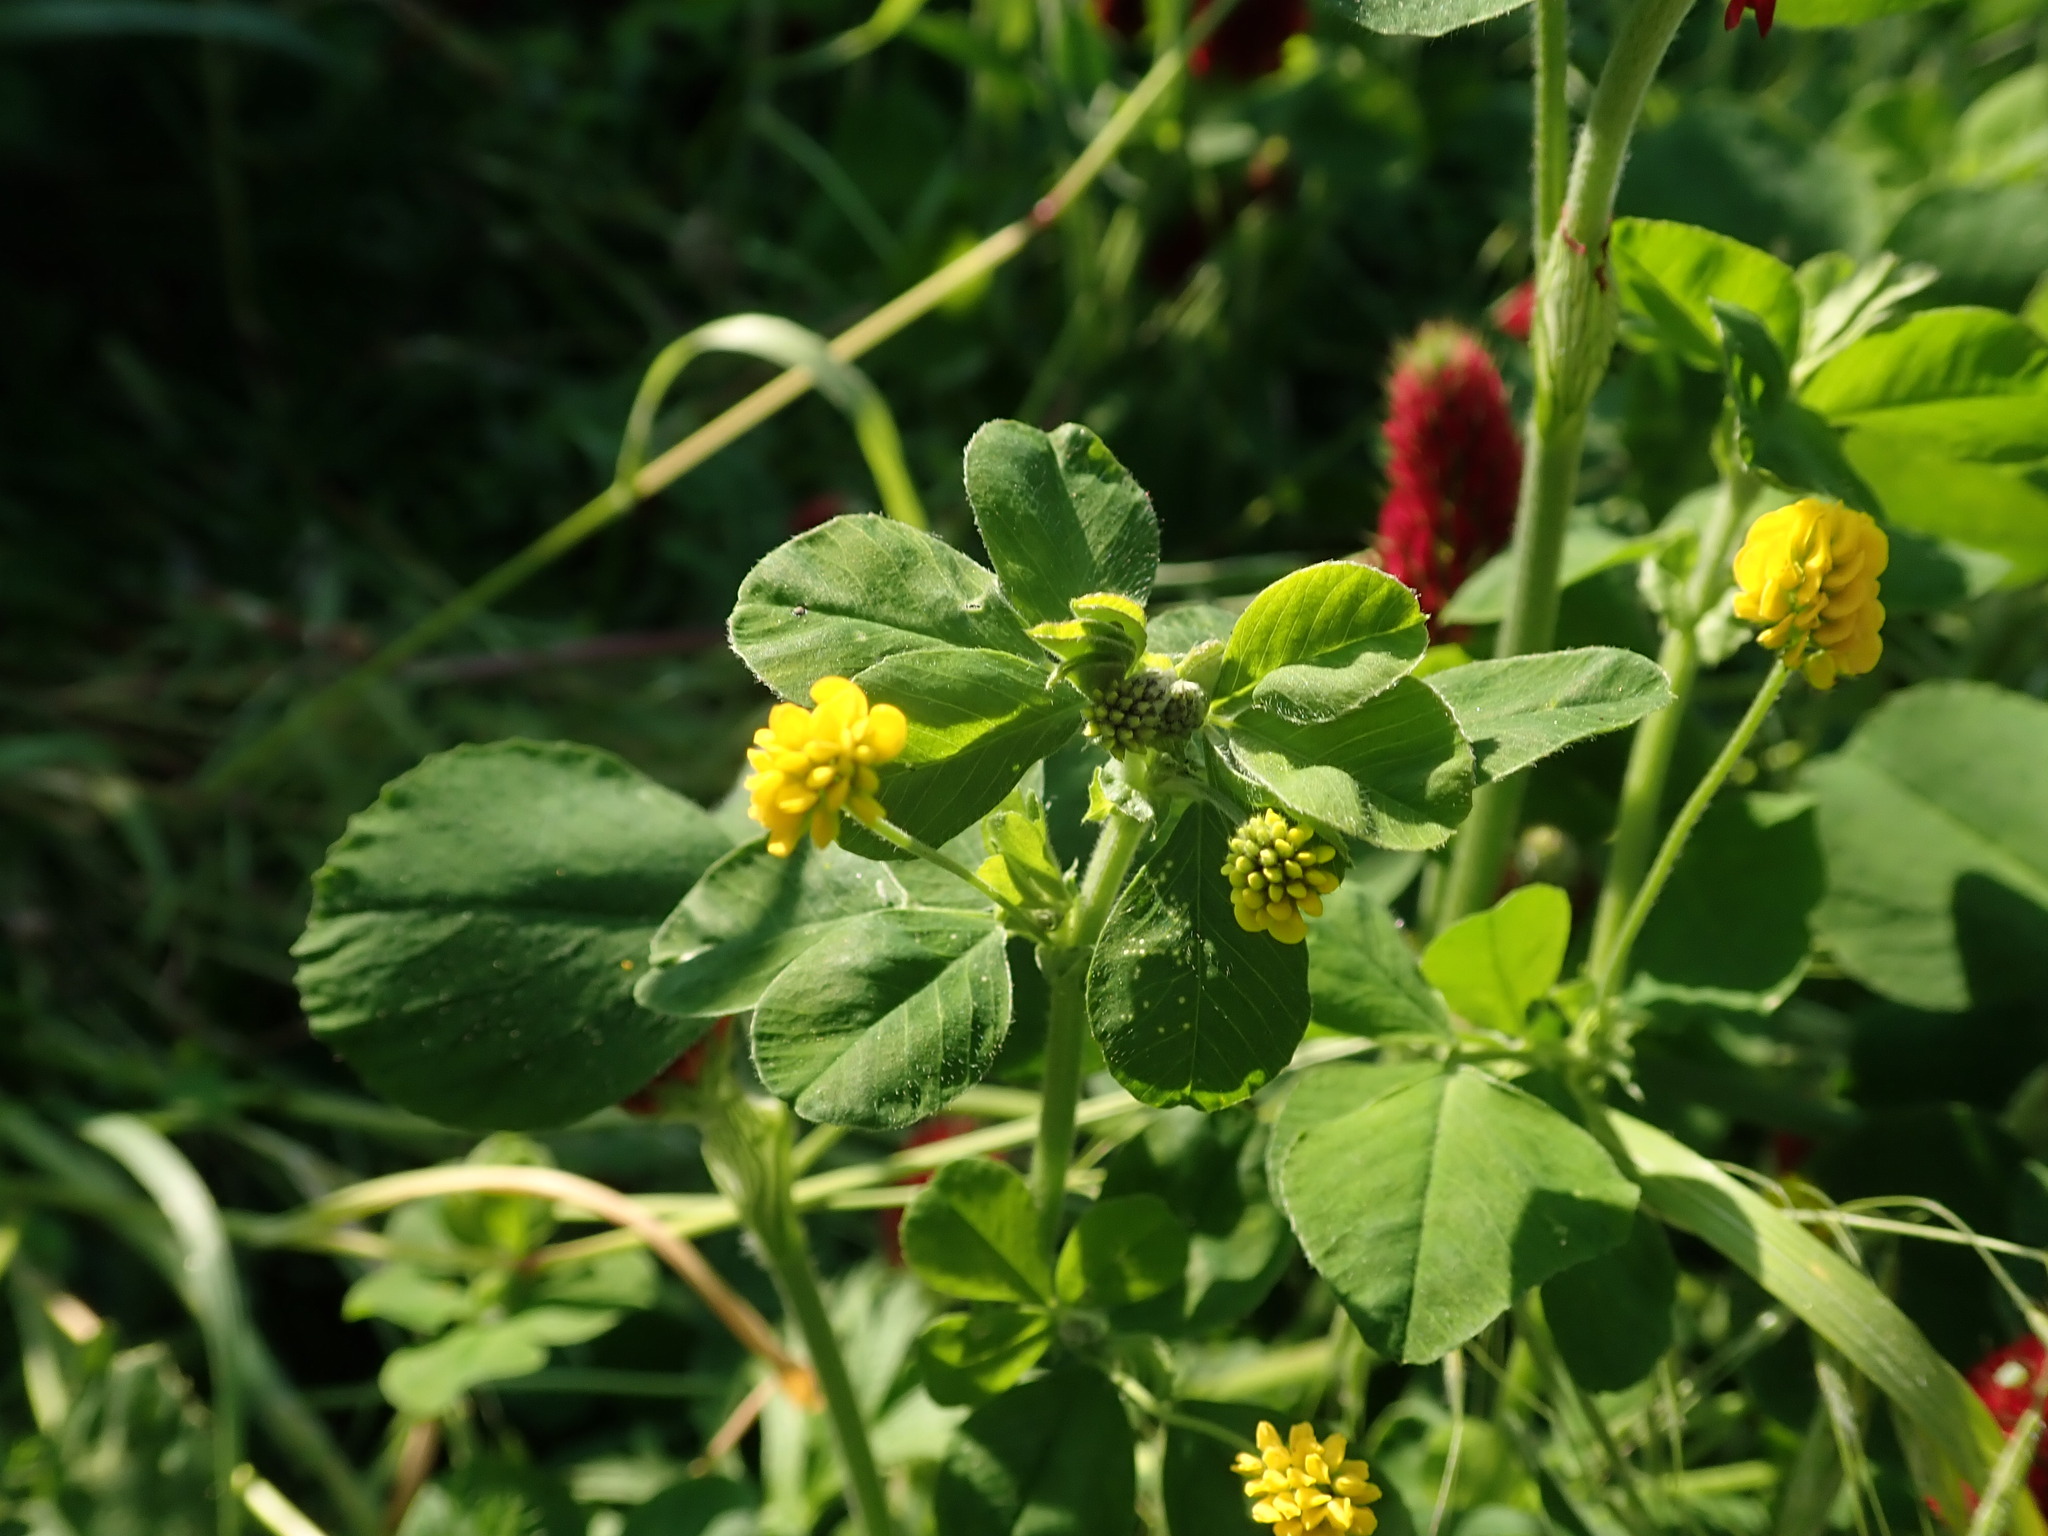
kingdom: Plantae
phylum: Tracheophyta
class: Magnoliopsida
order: Fabales
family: Fabaceae
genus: Medicago
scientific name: Medicago lupulina
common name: Black medick
